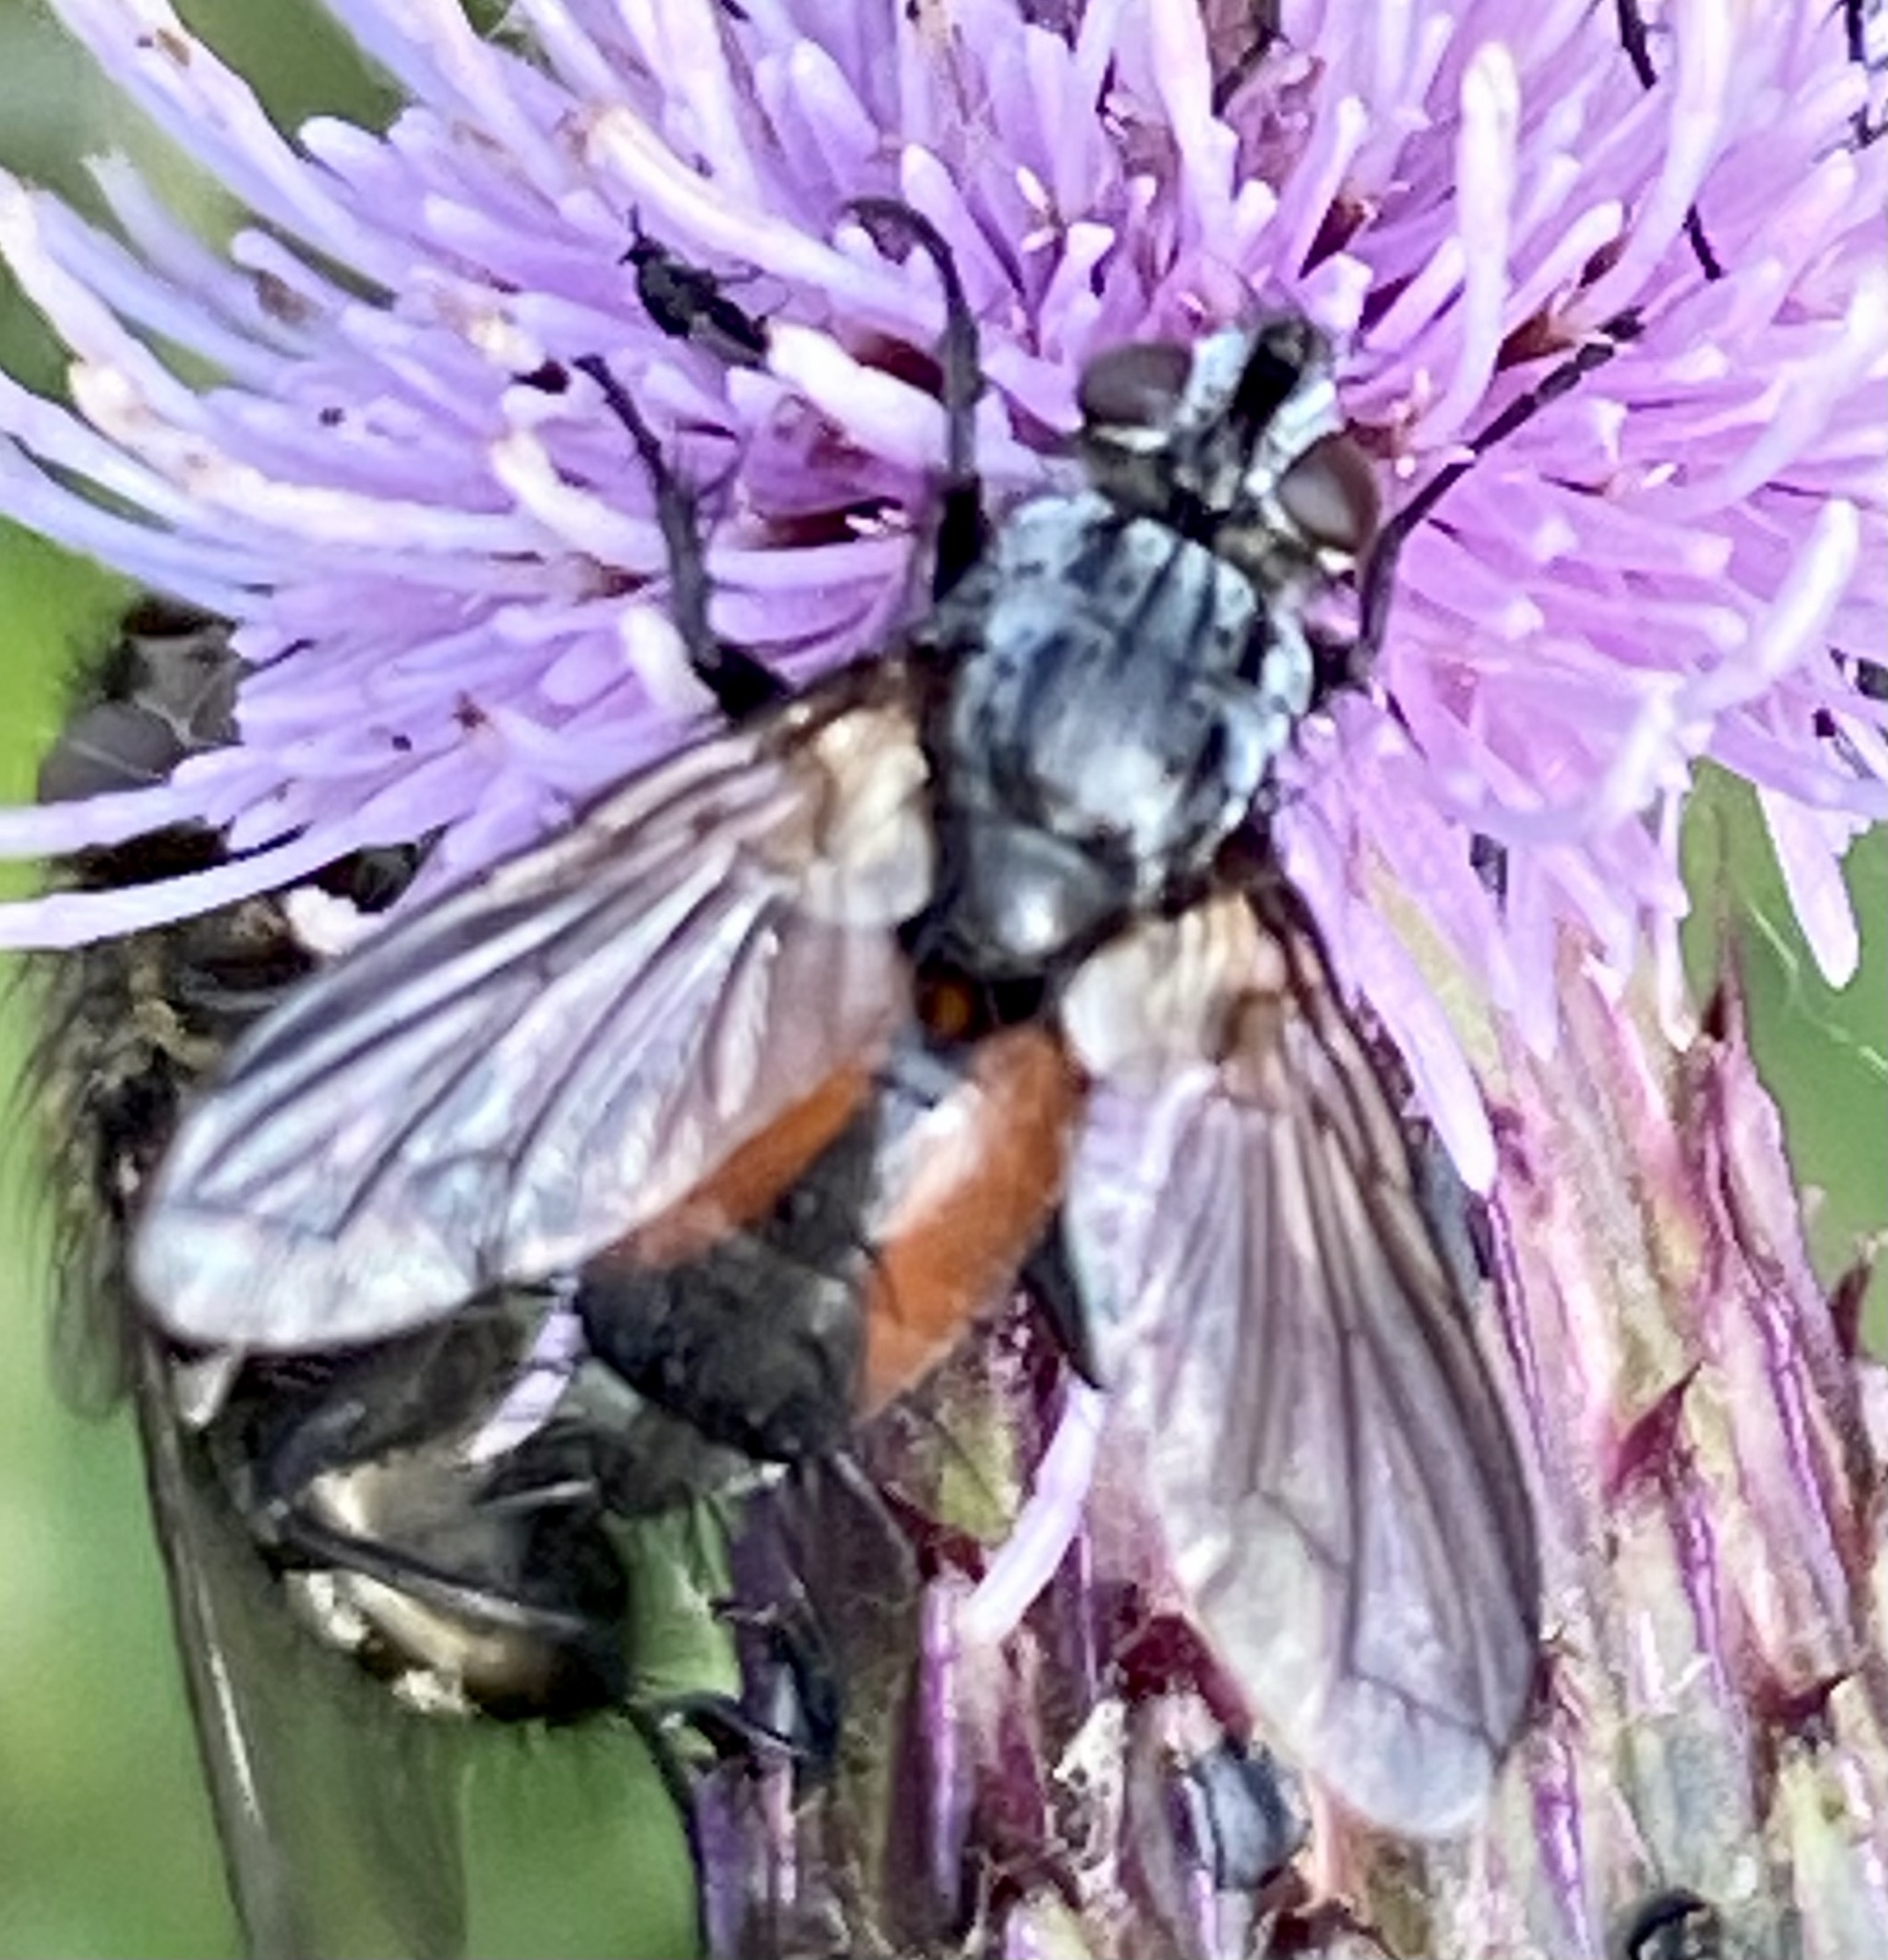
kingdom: Animalia
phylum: Arthropoda
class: Insecta
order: Diptera
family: Tachinidae
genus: Eriothrix
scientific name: Eriothrix rufomaculatus
